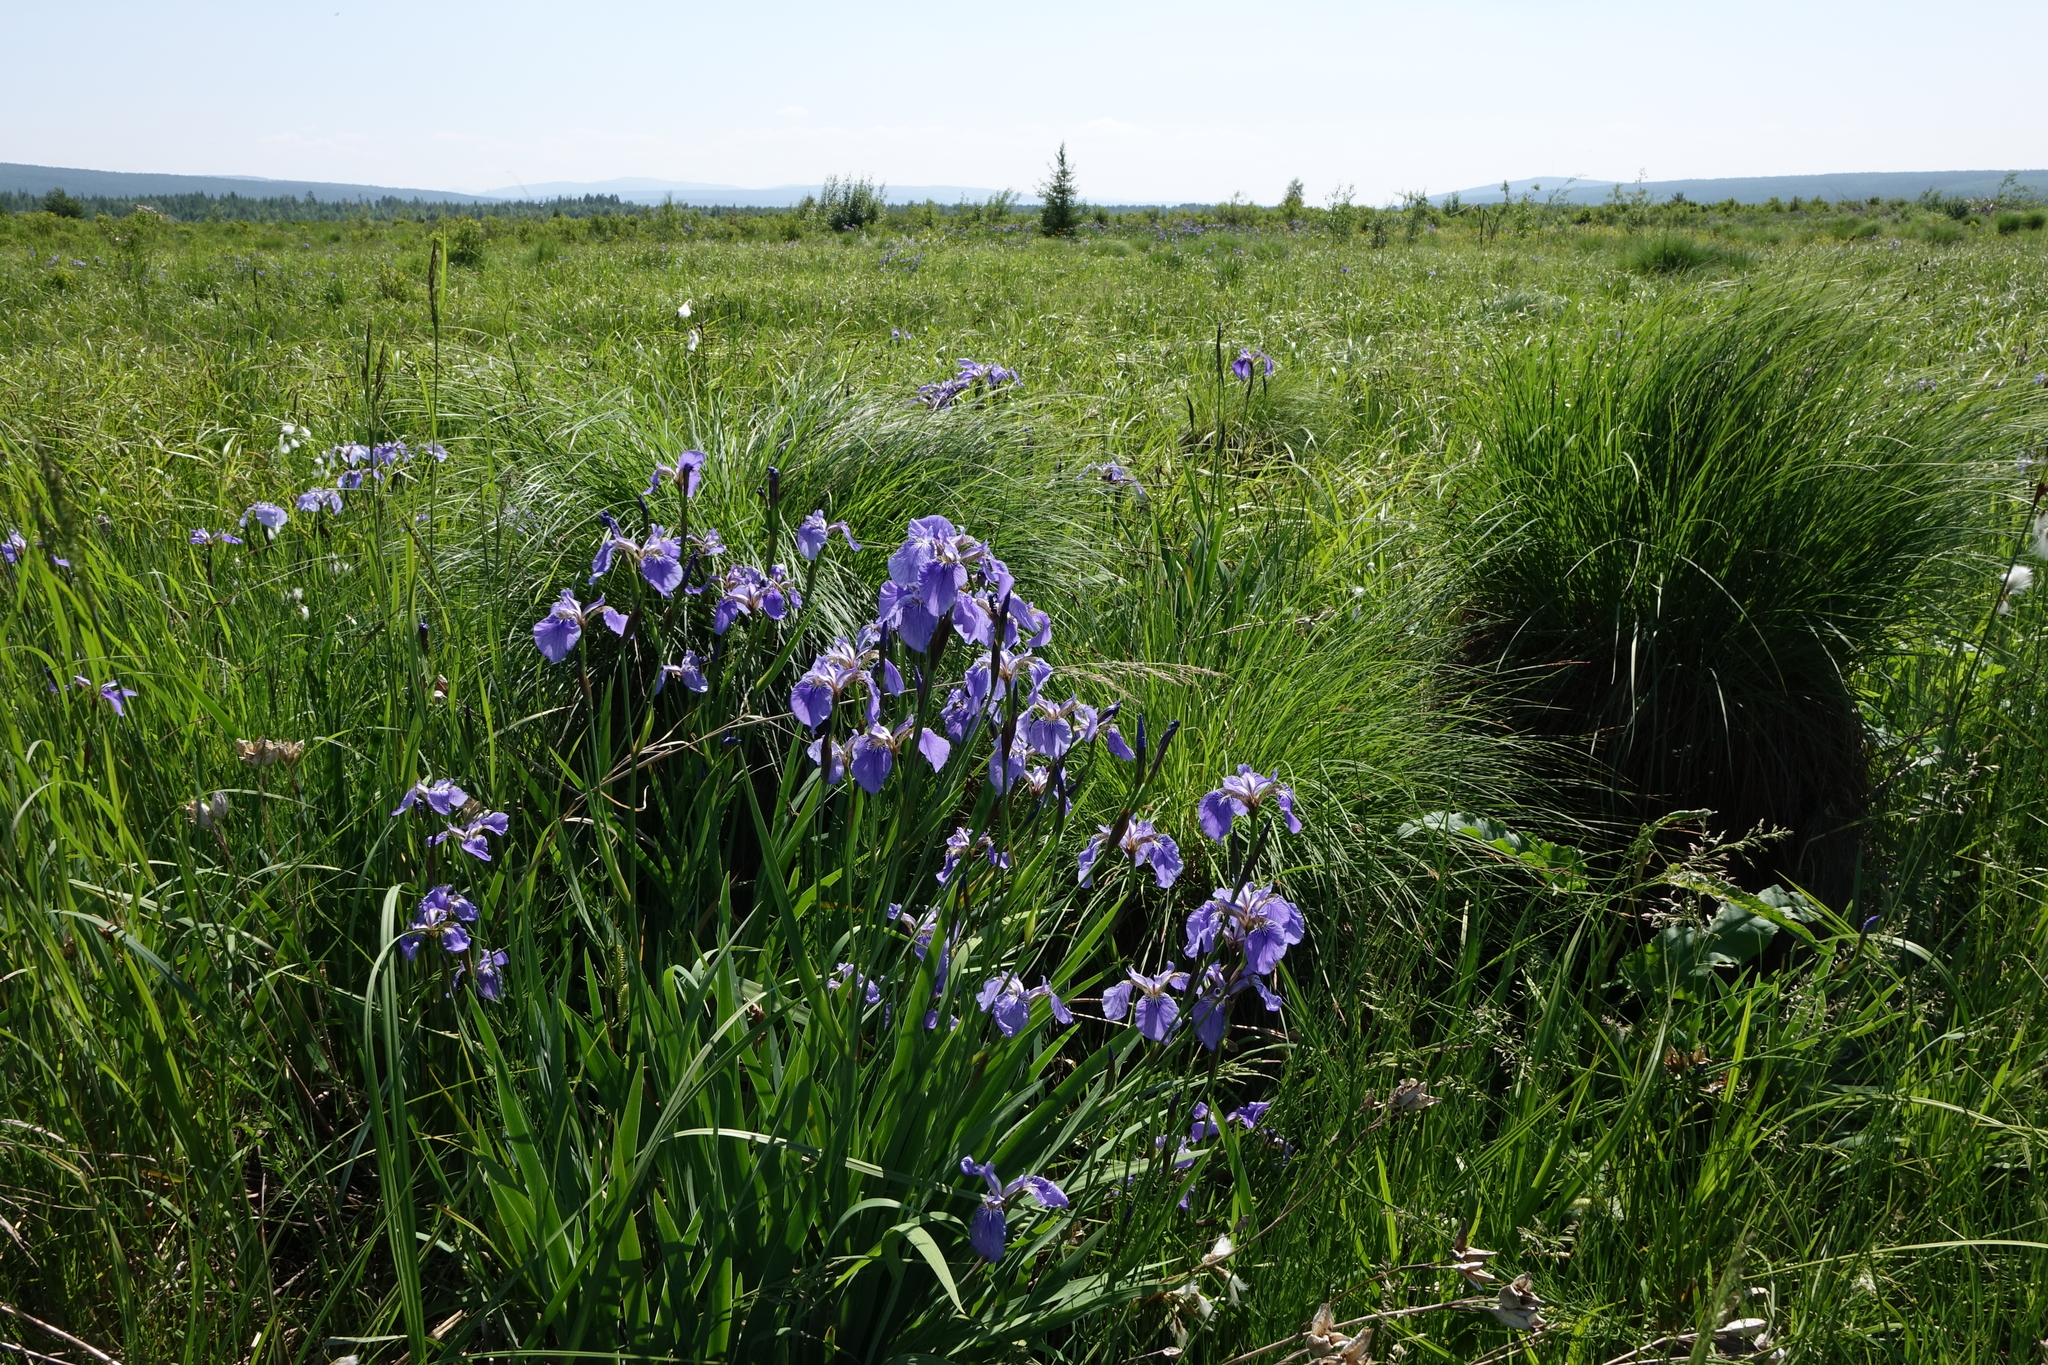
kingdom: Plantae
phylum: Tracheophyta
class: Liliopsida
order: Asparagales
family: Iridaceae
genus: Iris
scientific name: Iris setosa
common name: Arctic blue flag
